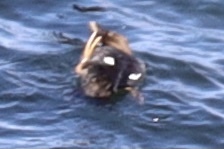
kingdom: Animalia
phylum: Chordata
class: Aves
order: Anseriformes
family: Anatidae
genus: Bucephala
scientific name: Bucephala clangula
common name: Common goldeneye
